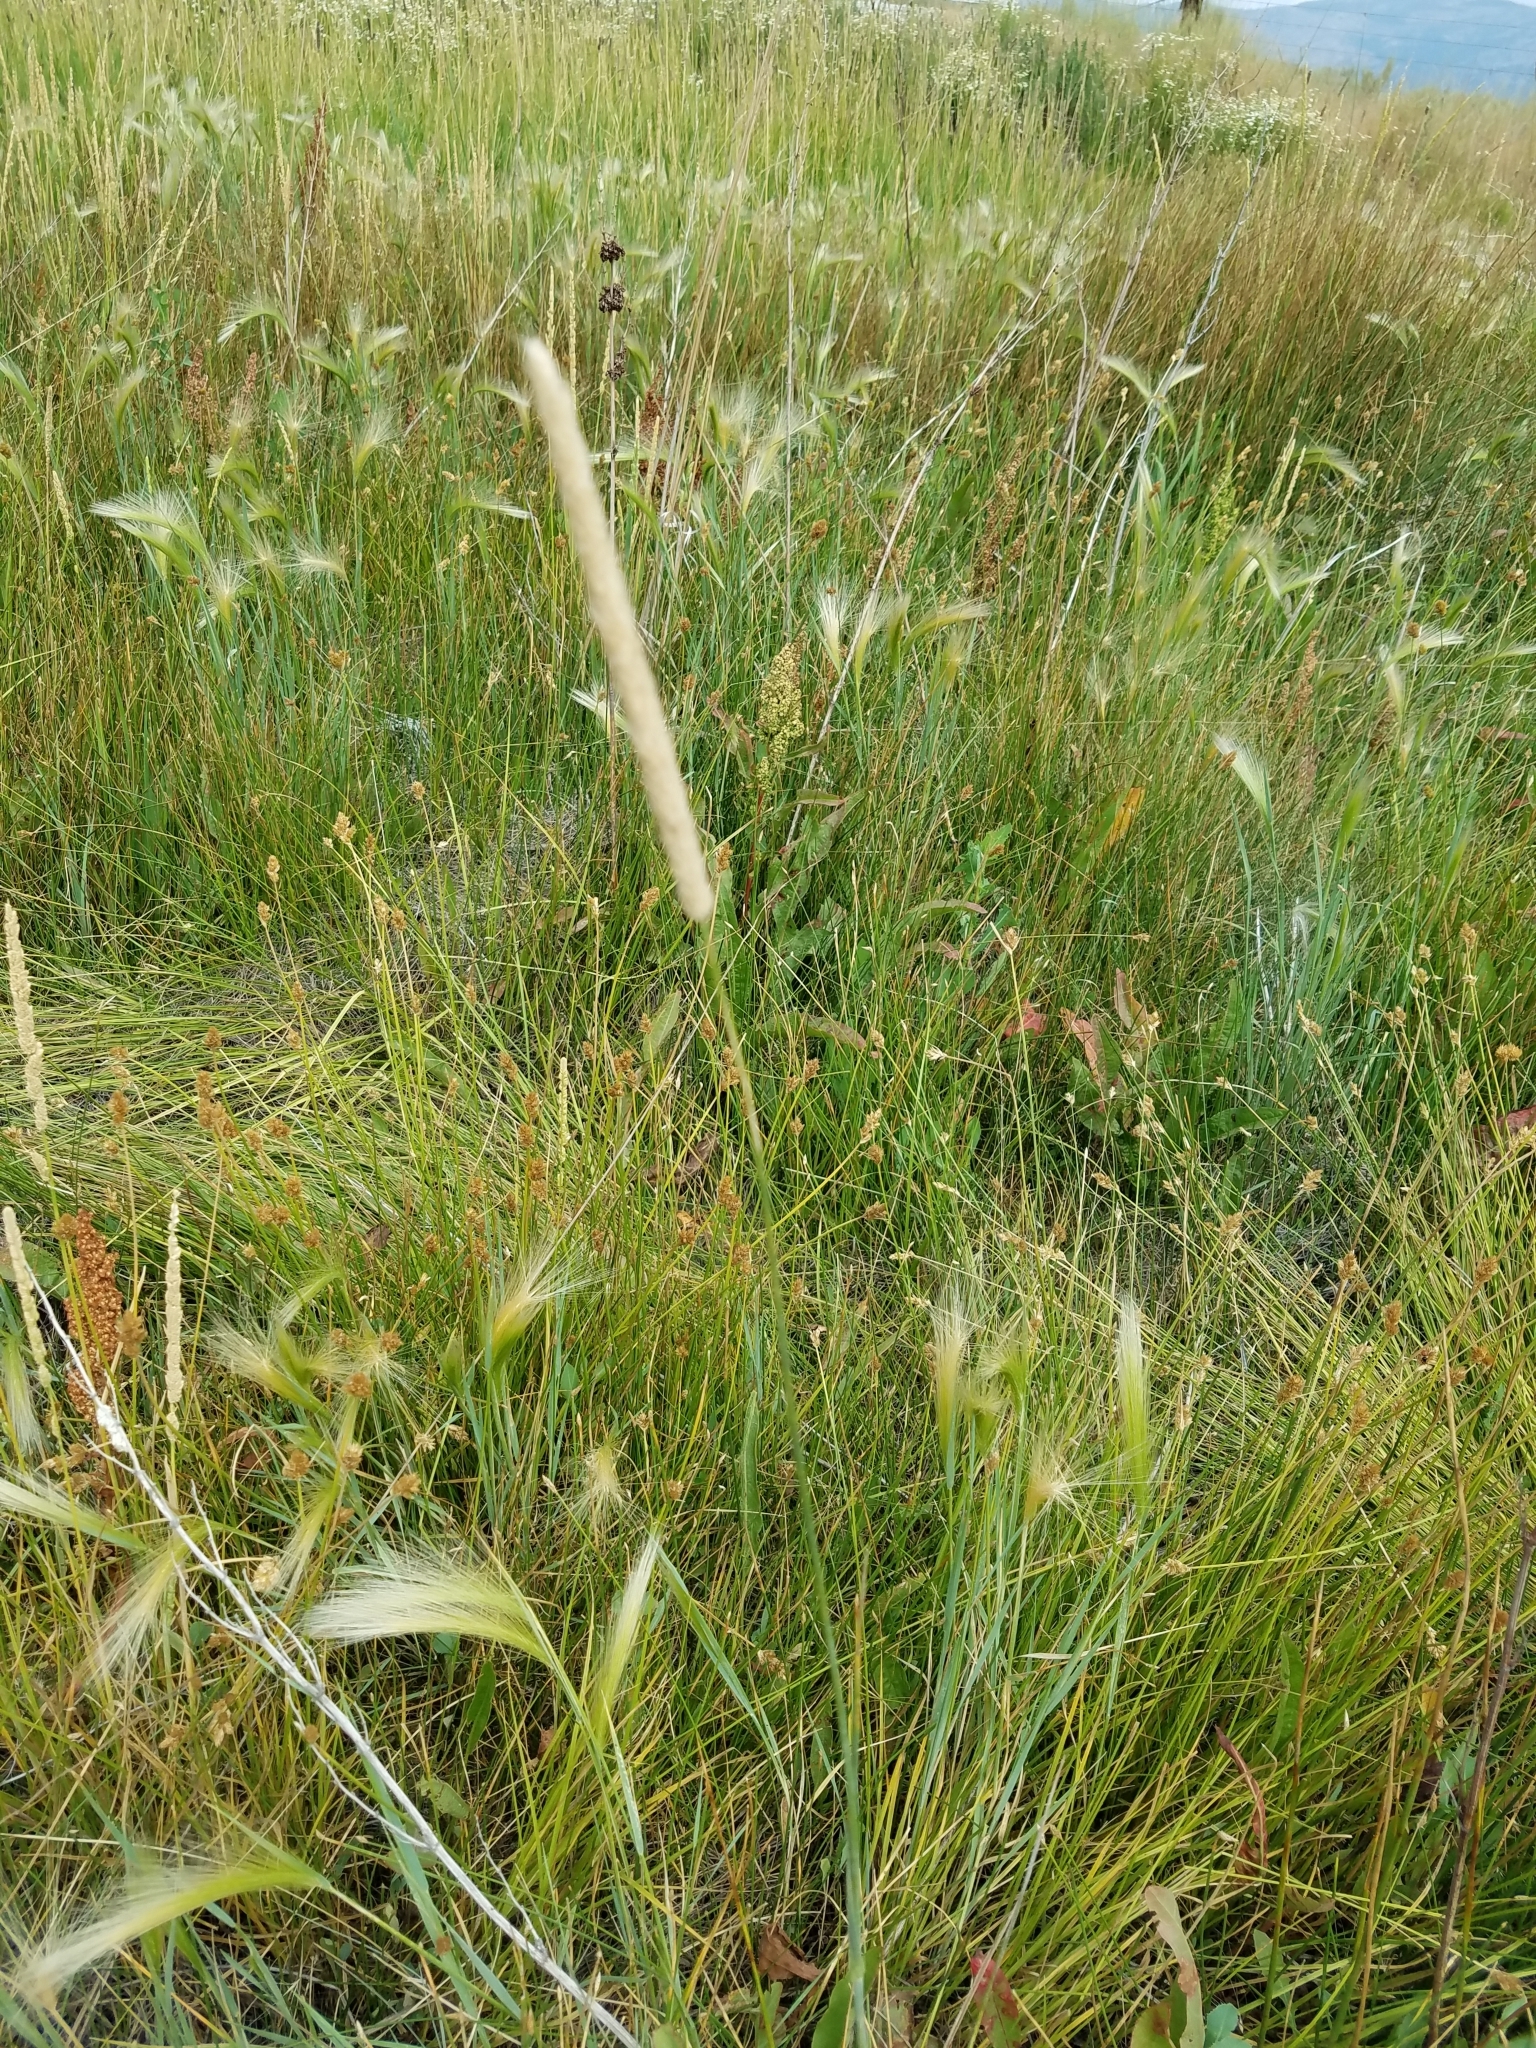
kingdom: Plantae
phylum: Tracheophyta
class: Liliopsida
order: Poales
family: Poaceae
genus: Alopecurus
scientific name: Alopecurus pratensis
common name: Meadow foxtail
